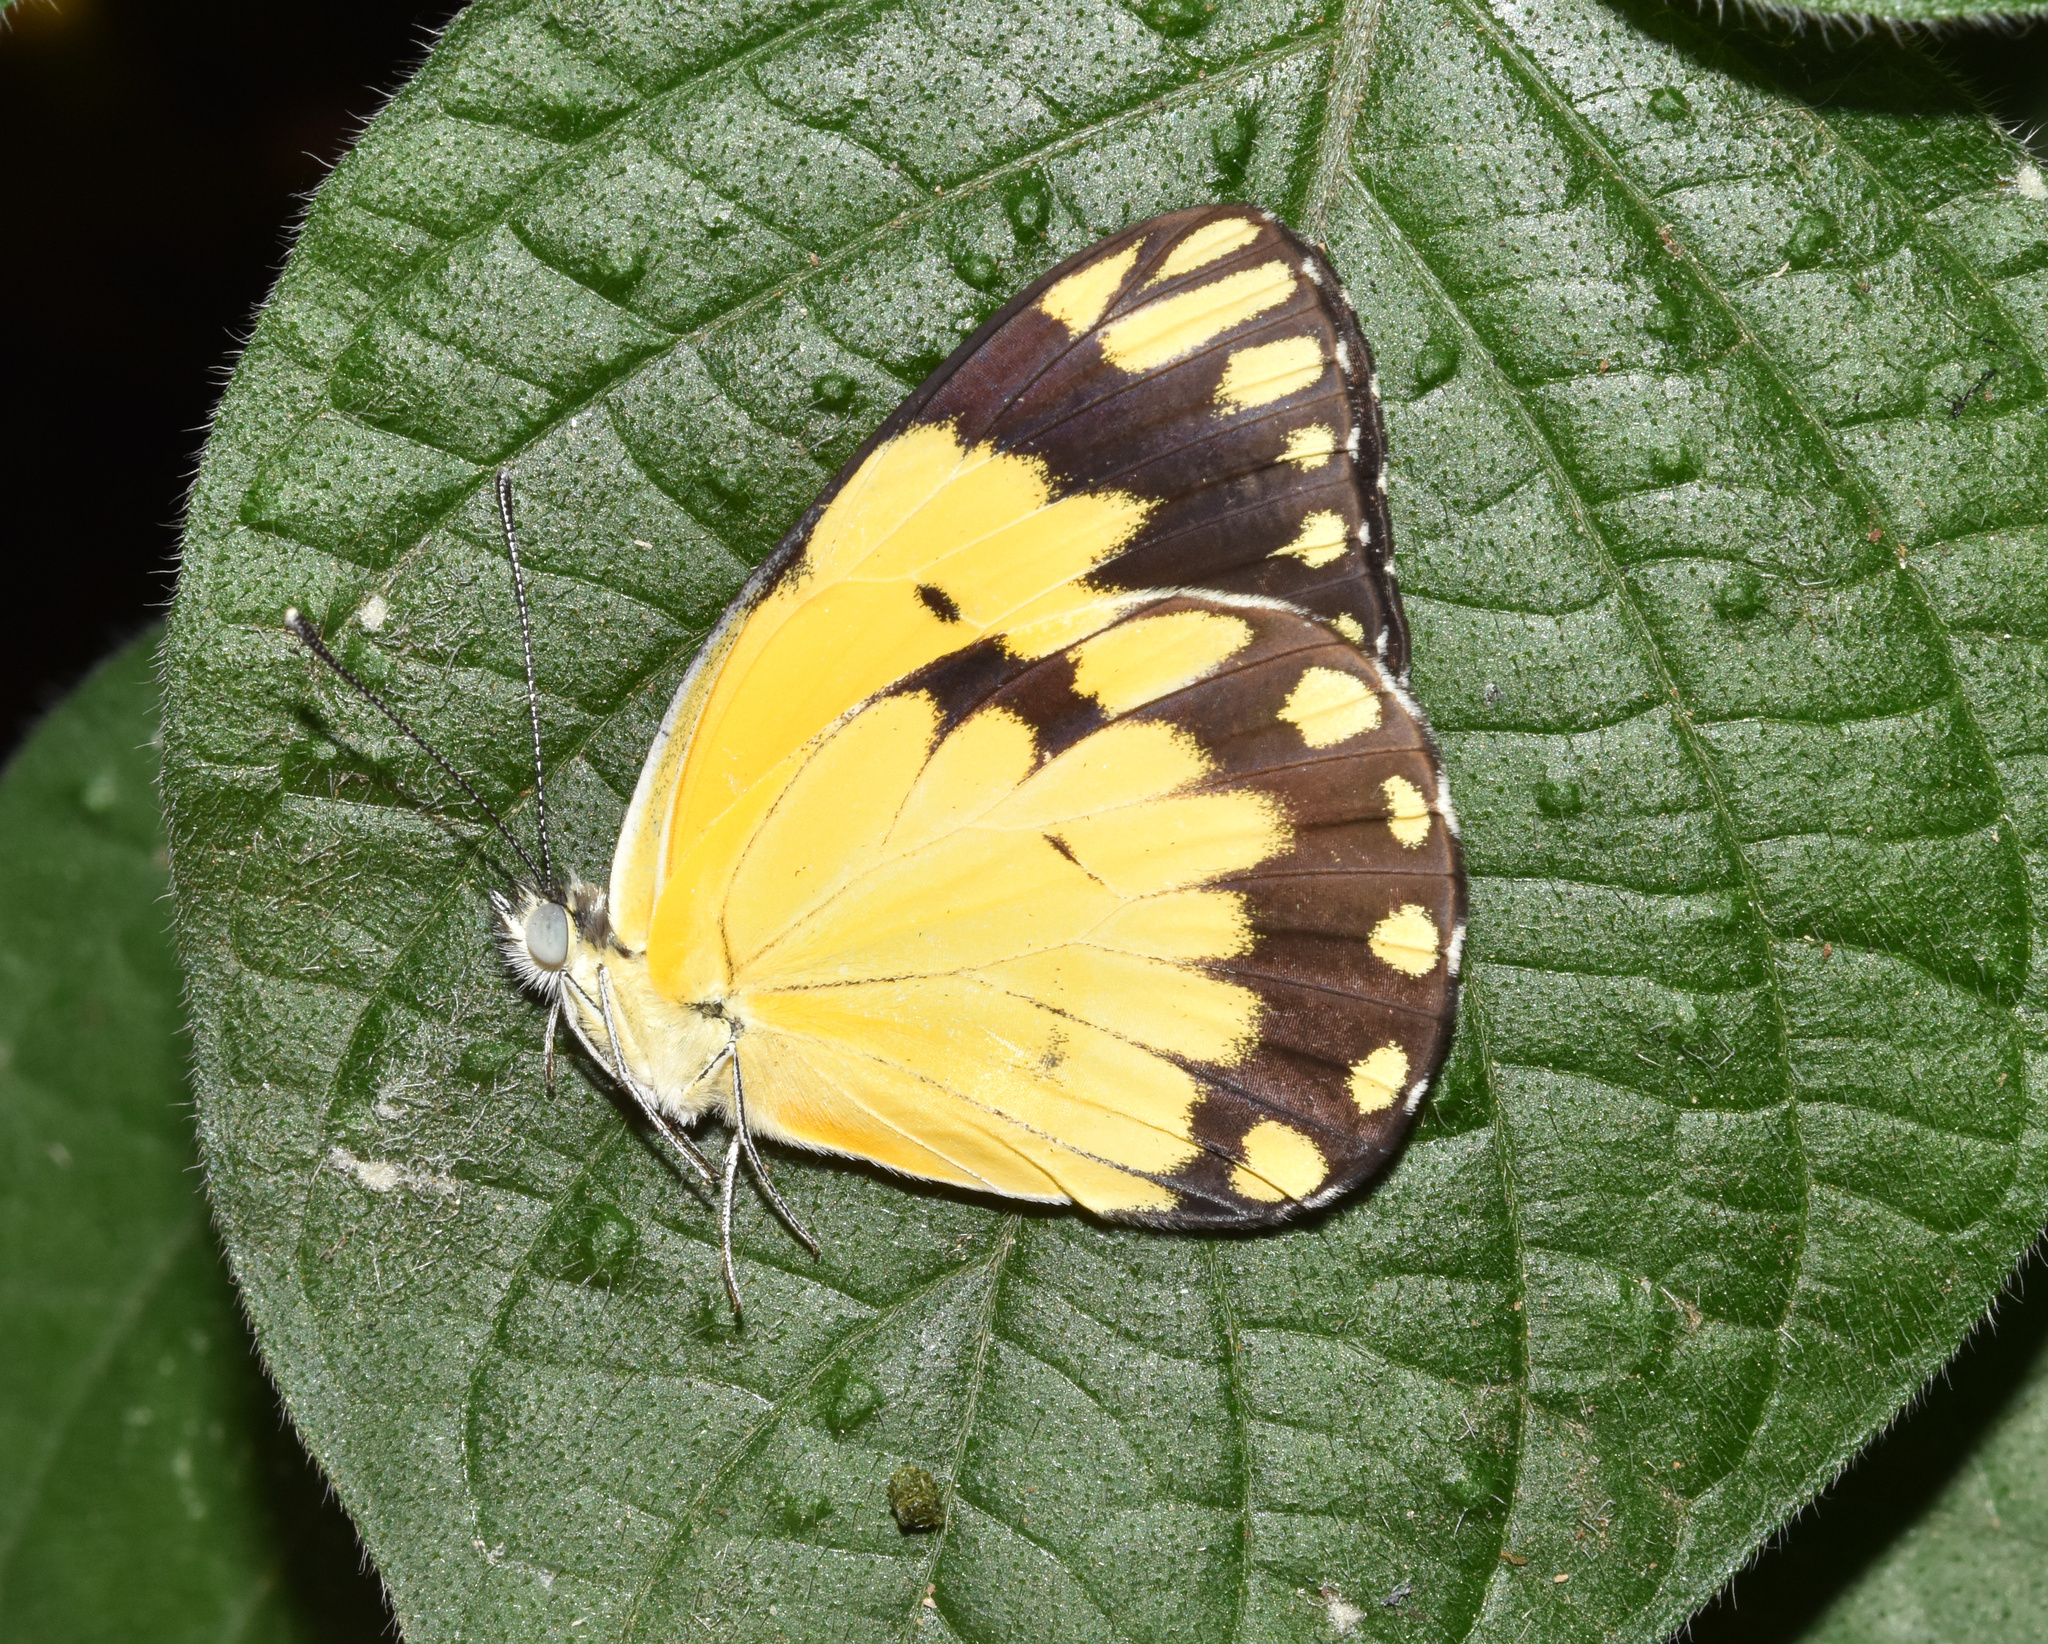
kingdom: Animalia
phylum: Arthropoda
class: Insecta
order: Lepidoptera
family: Pieridae
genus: Belenois
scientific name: Belenois creona
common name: African caper white
